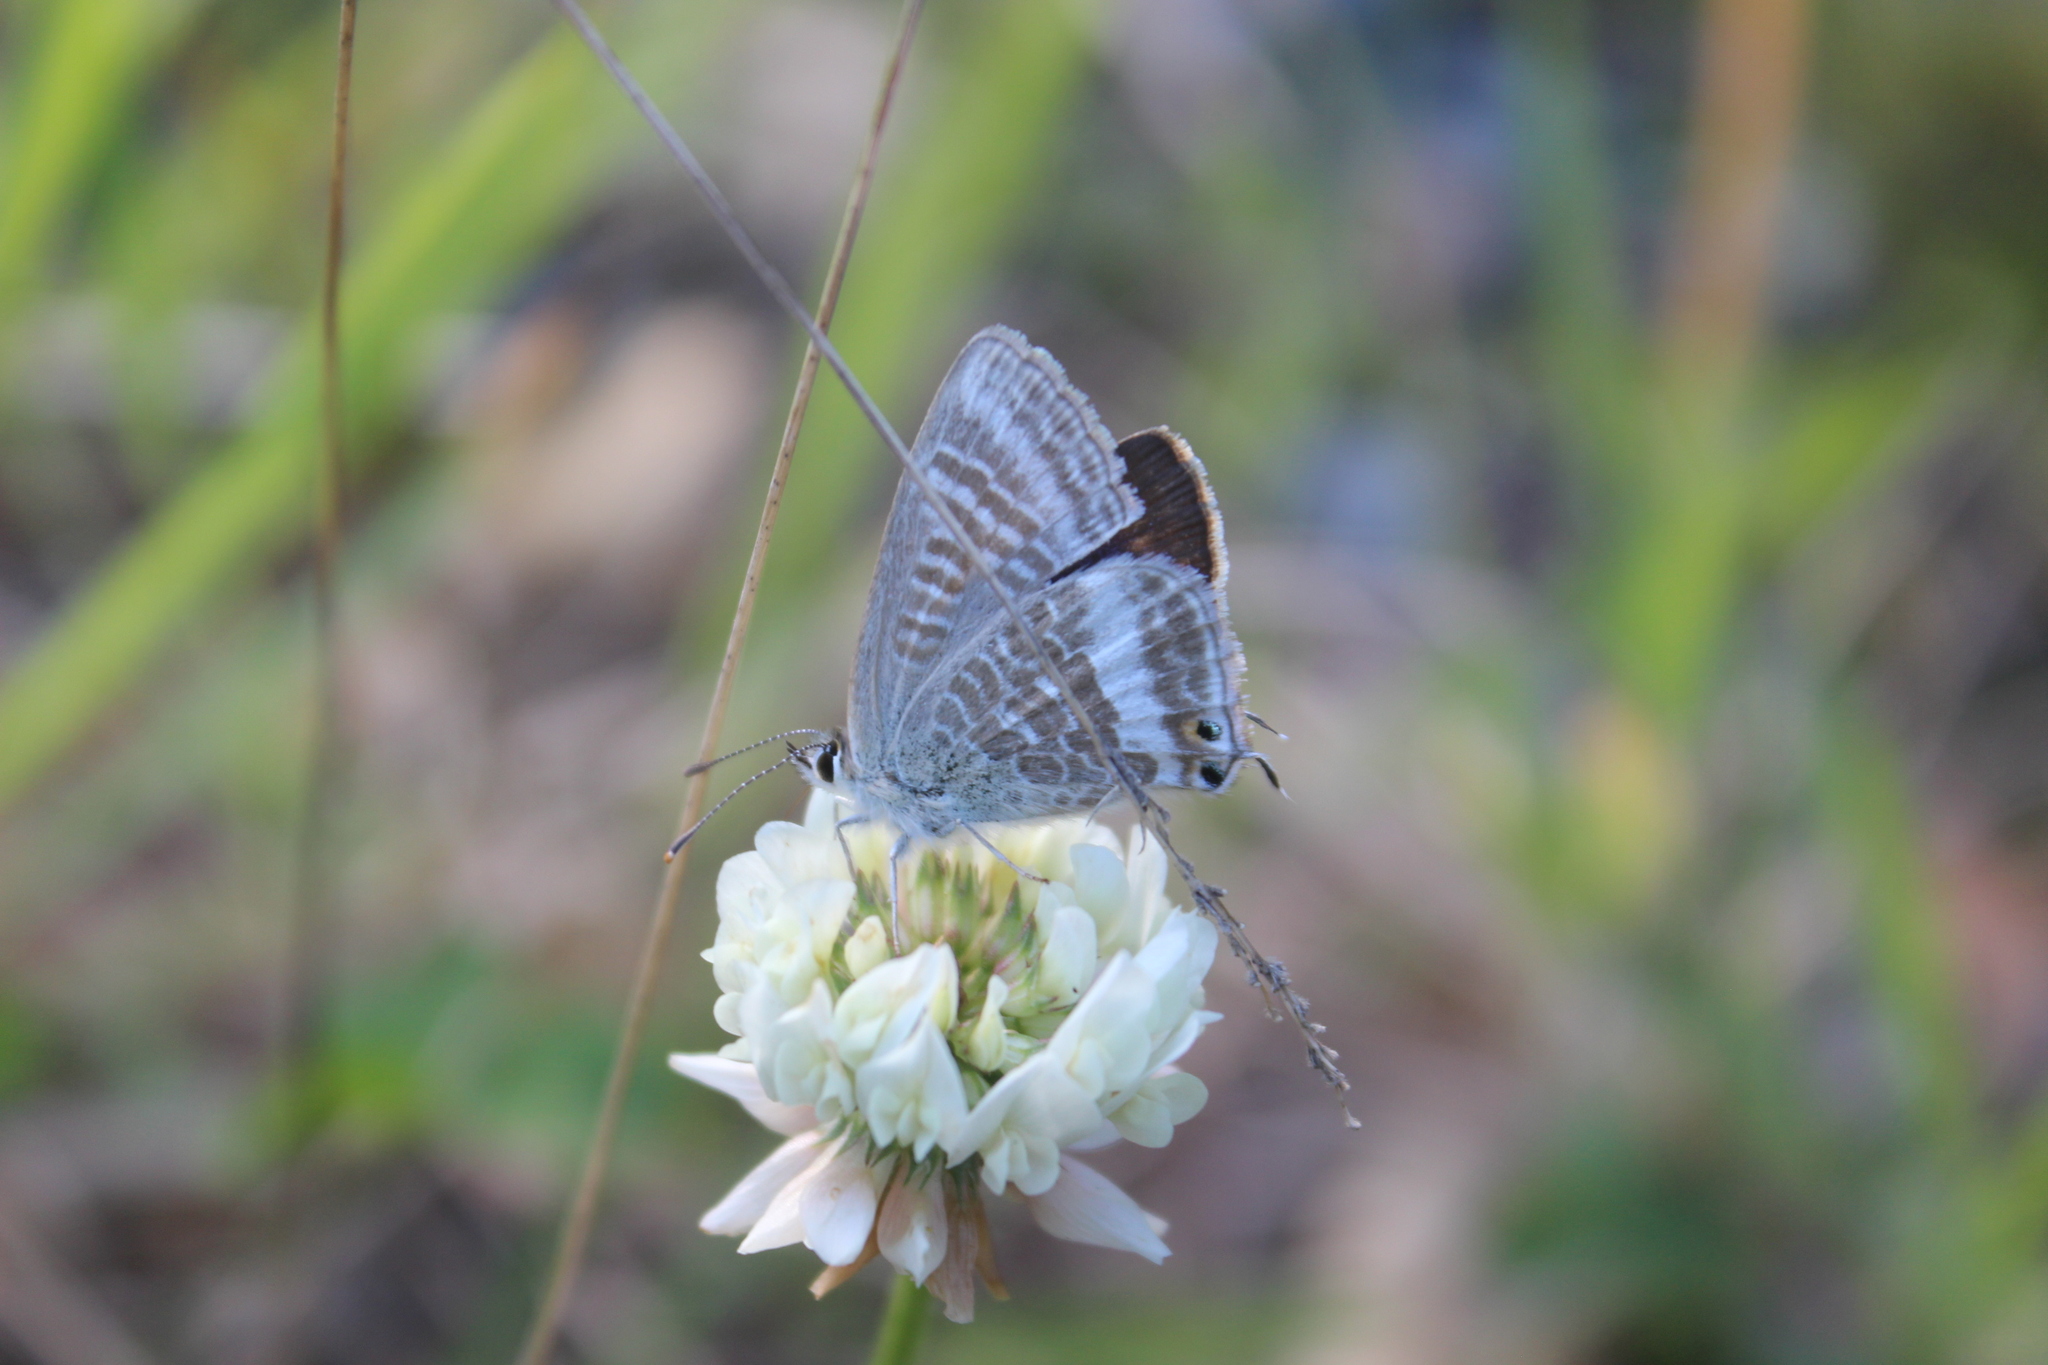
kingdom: Animalia
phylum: Arthropoda
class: Insecta
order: Lepidoptera
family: Lycaenidae
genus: Lampides
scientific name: Lampides boeticus
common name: Long-tailed blue
